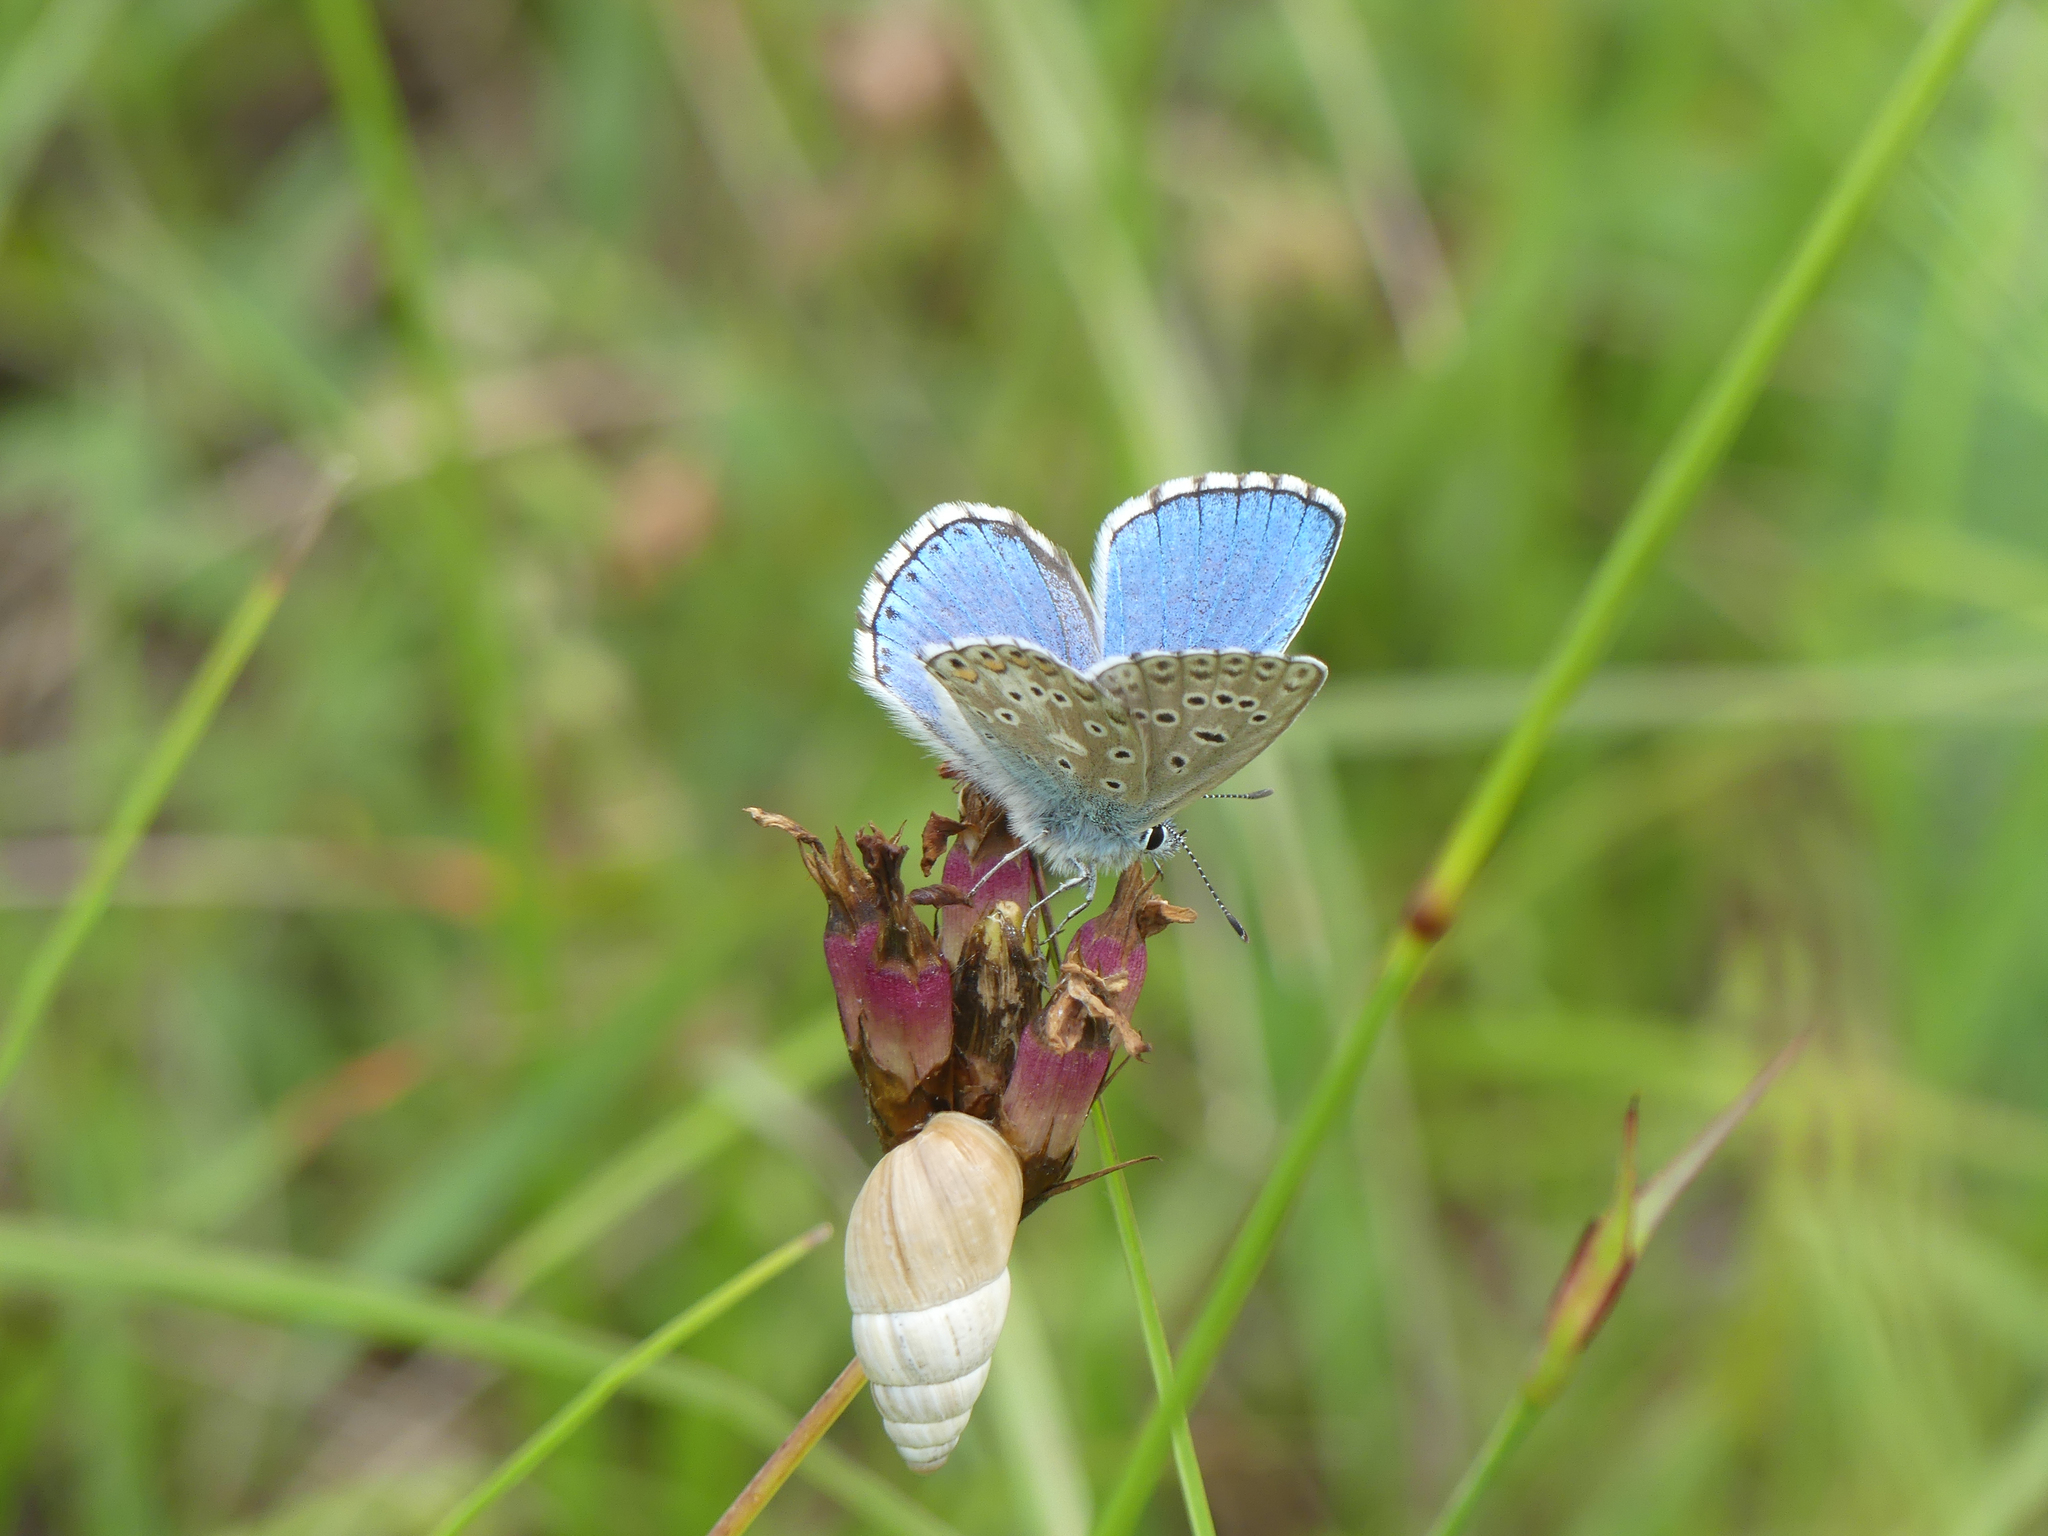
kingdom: Animalia
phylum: Arthropoda
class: Insecta
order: Lepidoptera
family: Lycaenidae
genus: Lysandra
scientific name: Lysandra bellargus
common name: Adonis blue
